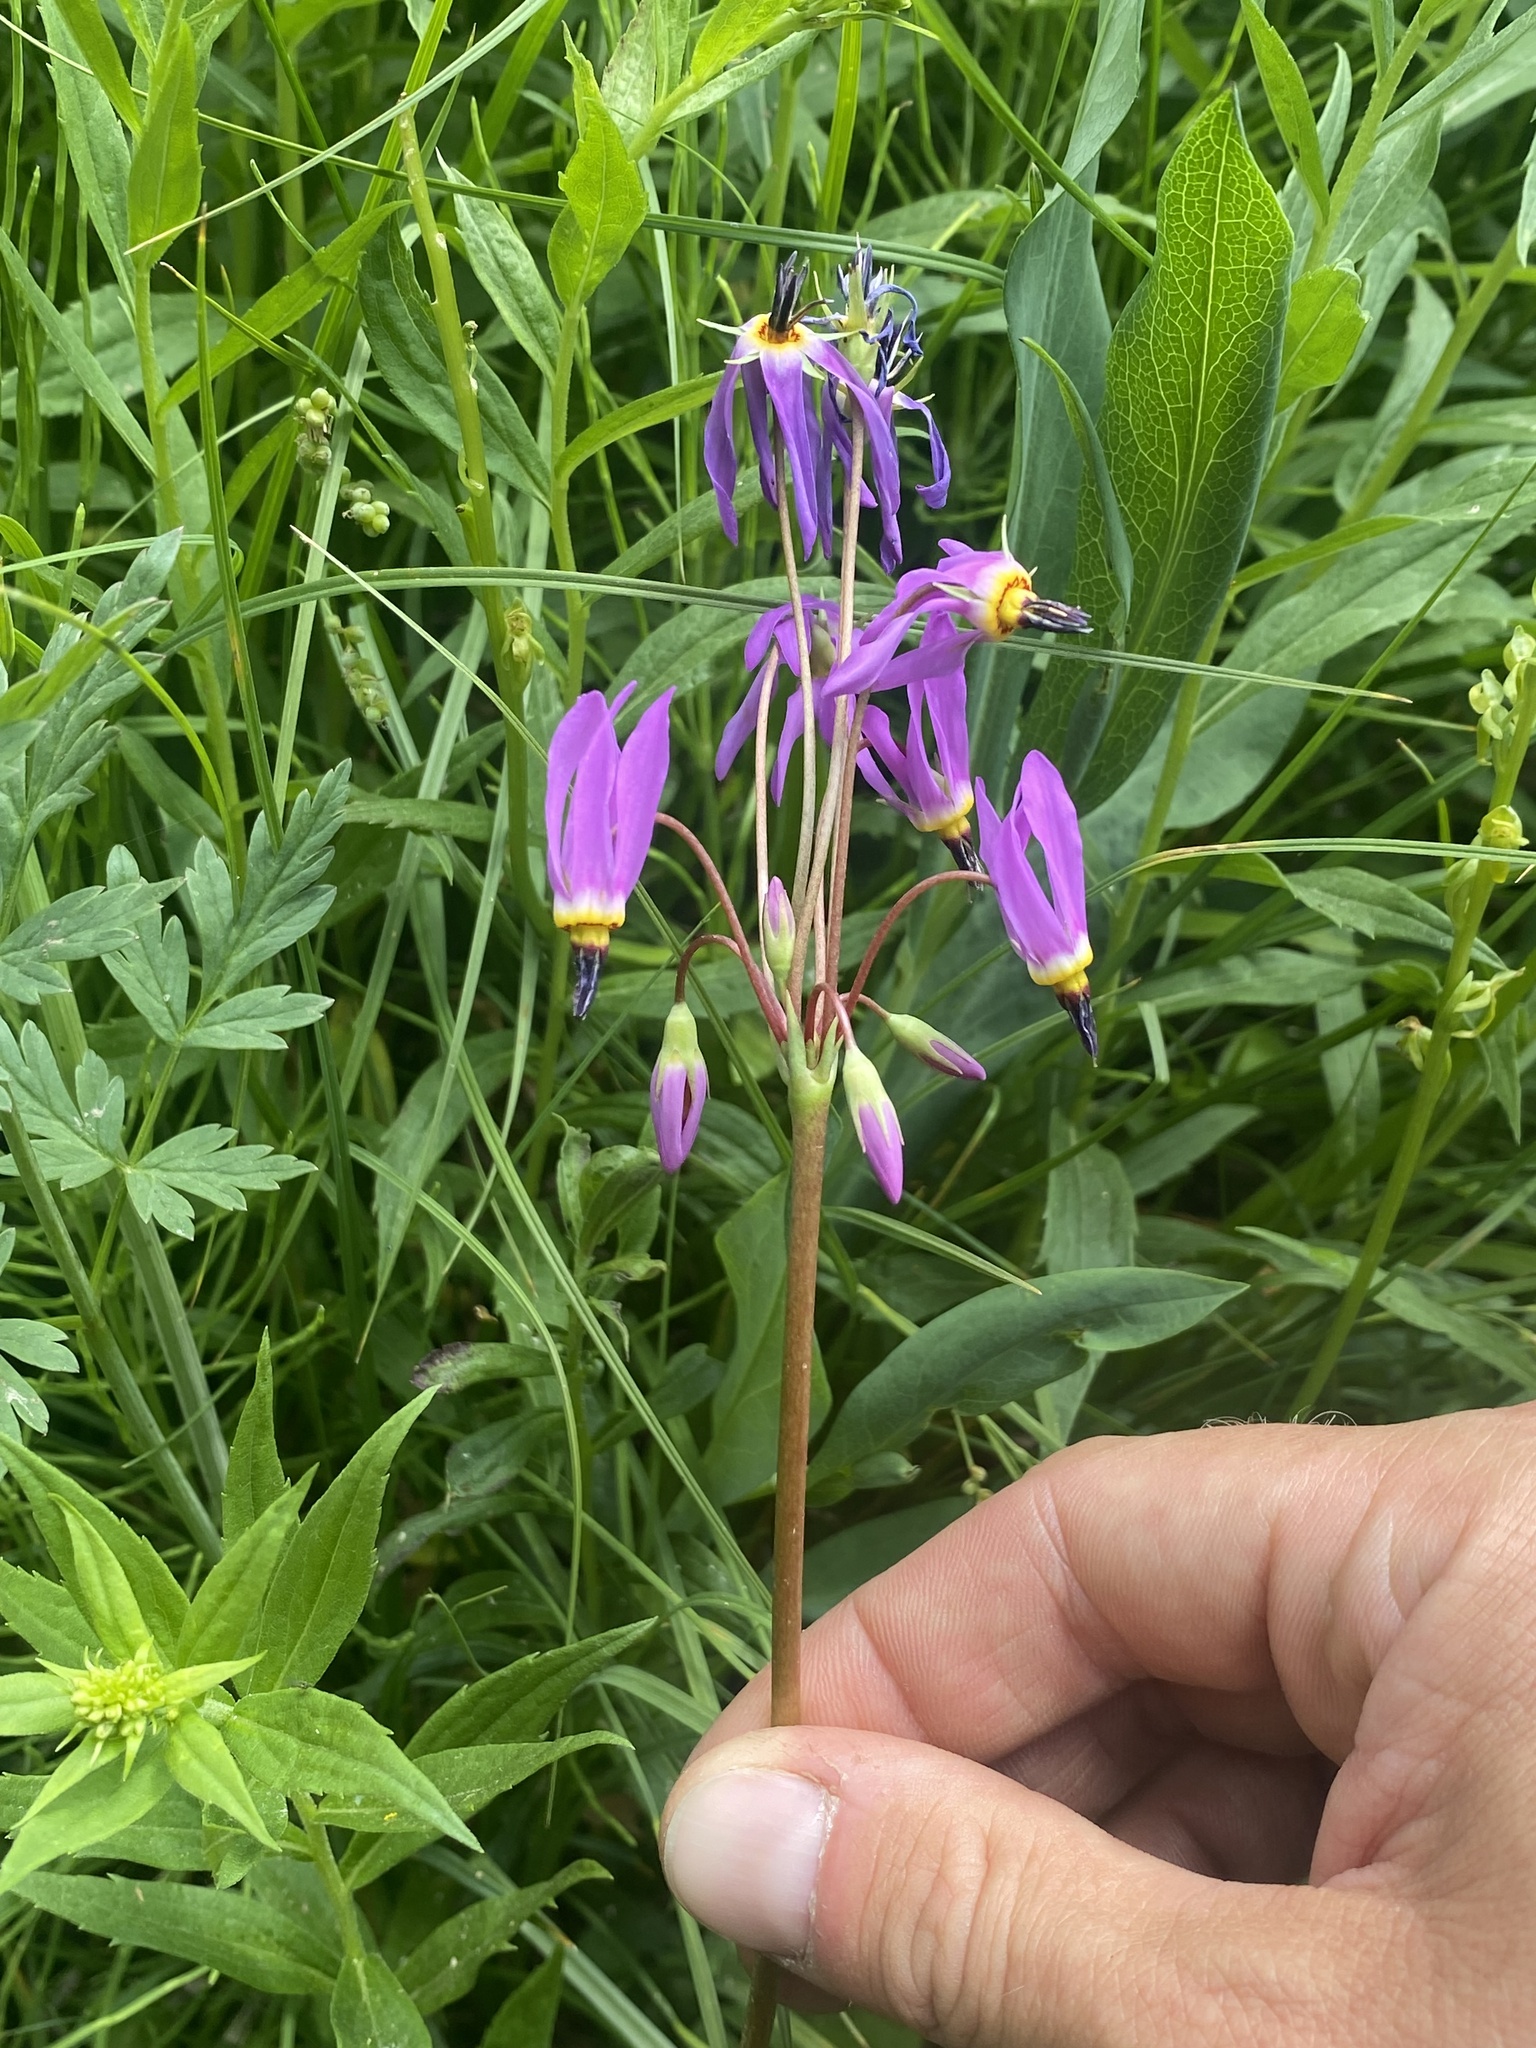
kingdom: Plantae
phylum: Tracheophyta
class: Magnoliopsida
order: Ericales
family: Primulaceae
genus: Dodecatheon
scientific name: Dodecatheon pulchellum
